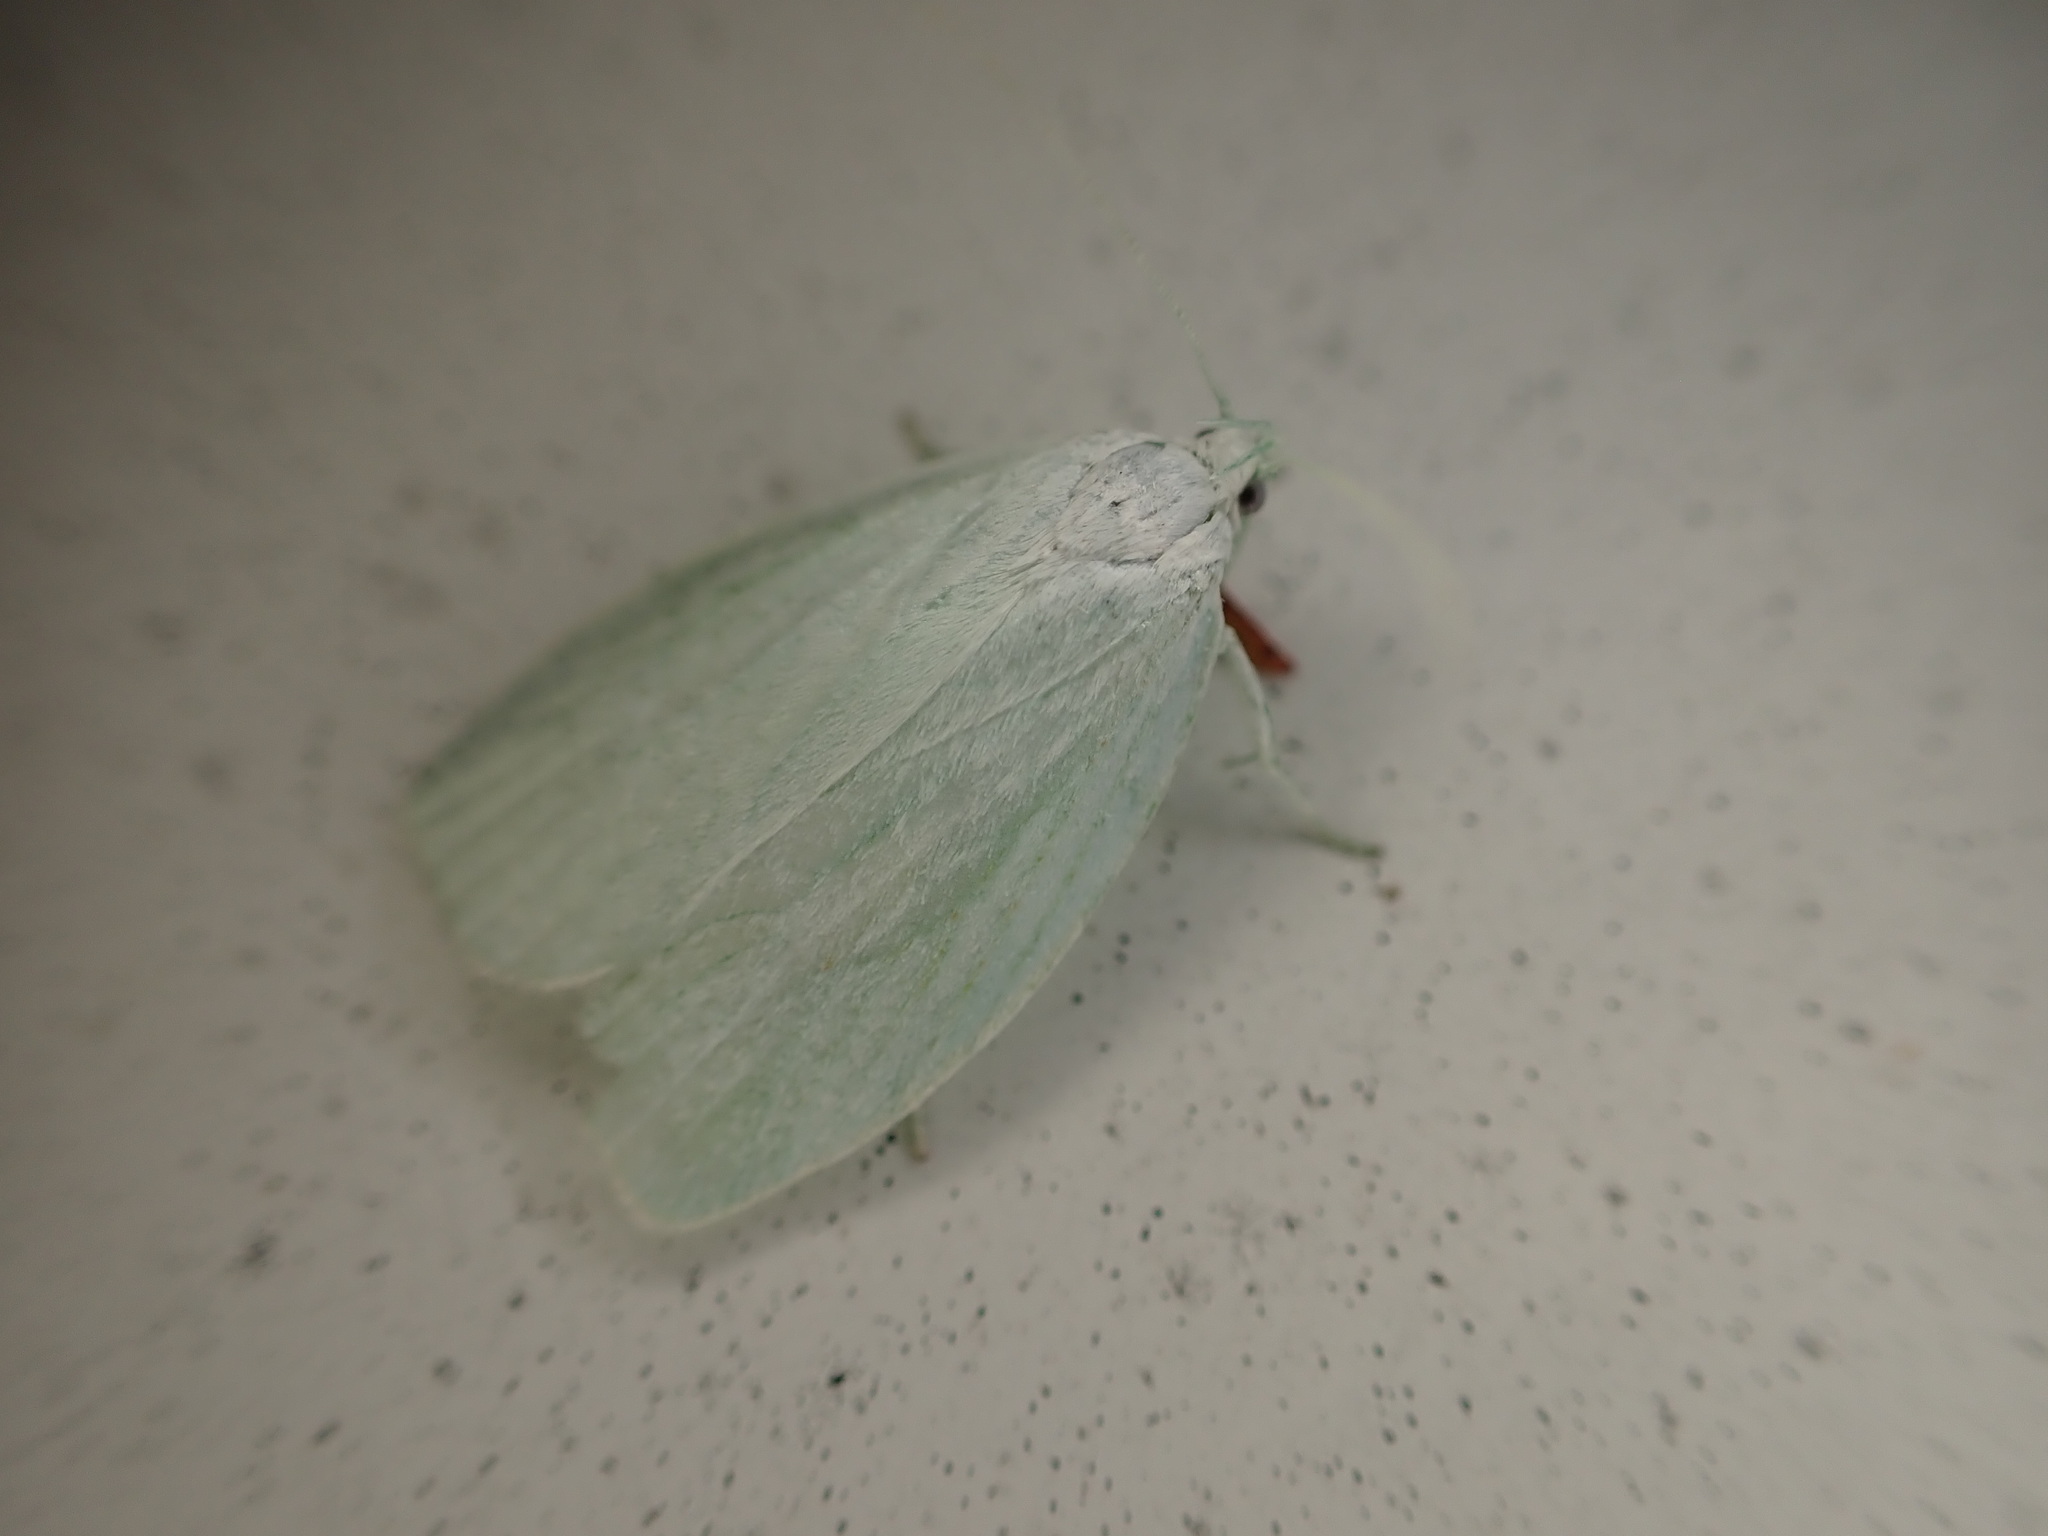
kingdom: Animalia
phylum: Arthropoda
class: Insecta
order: Lepidoptera
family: Oecophoridae
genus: Nymphostola
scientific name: Nymphostola galactina
